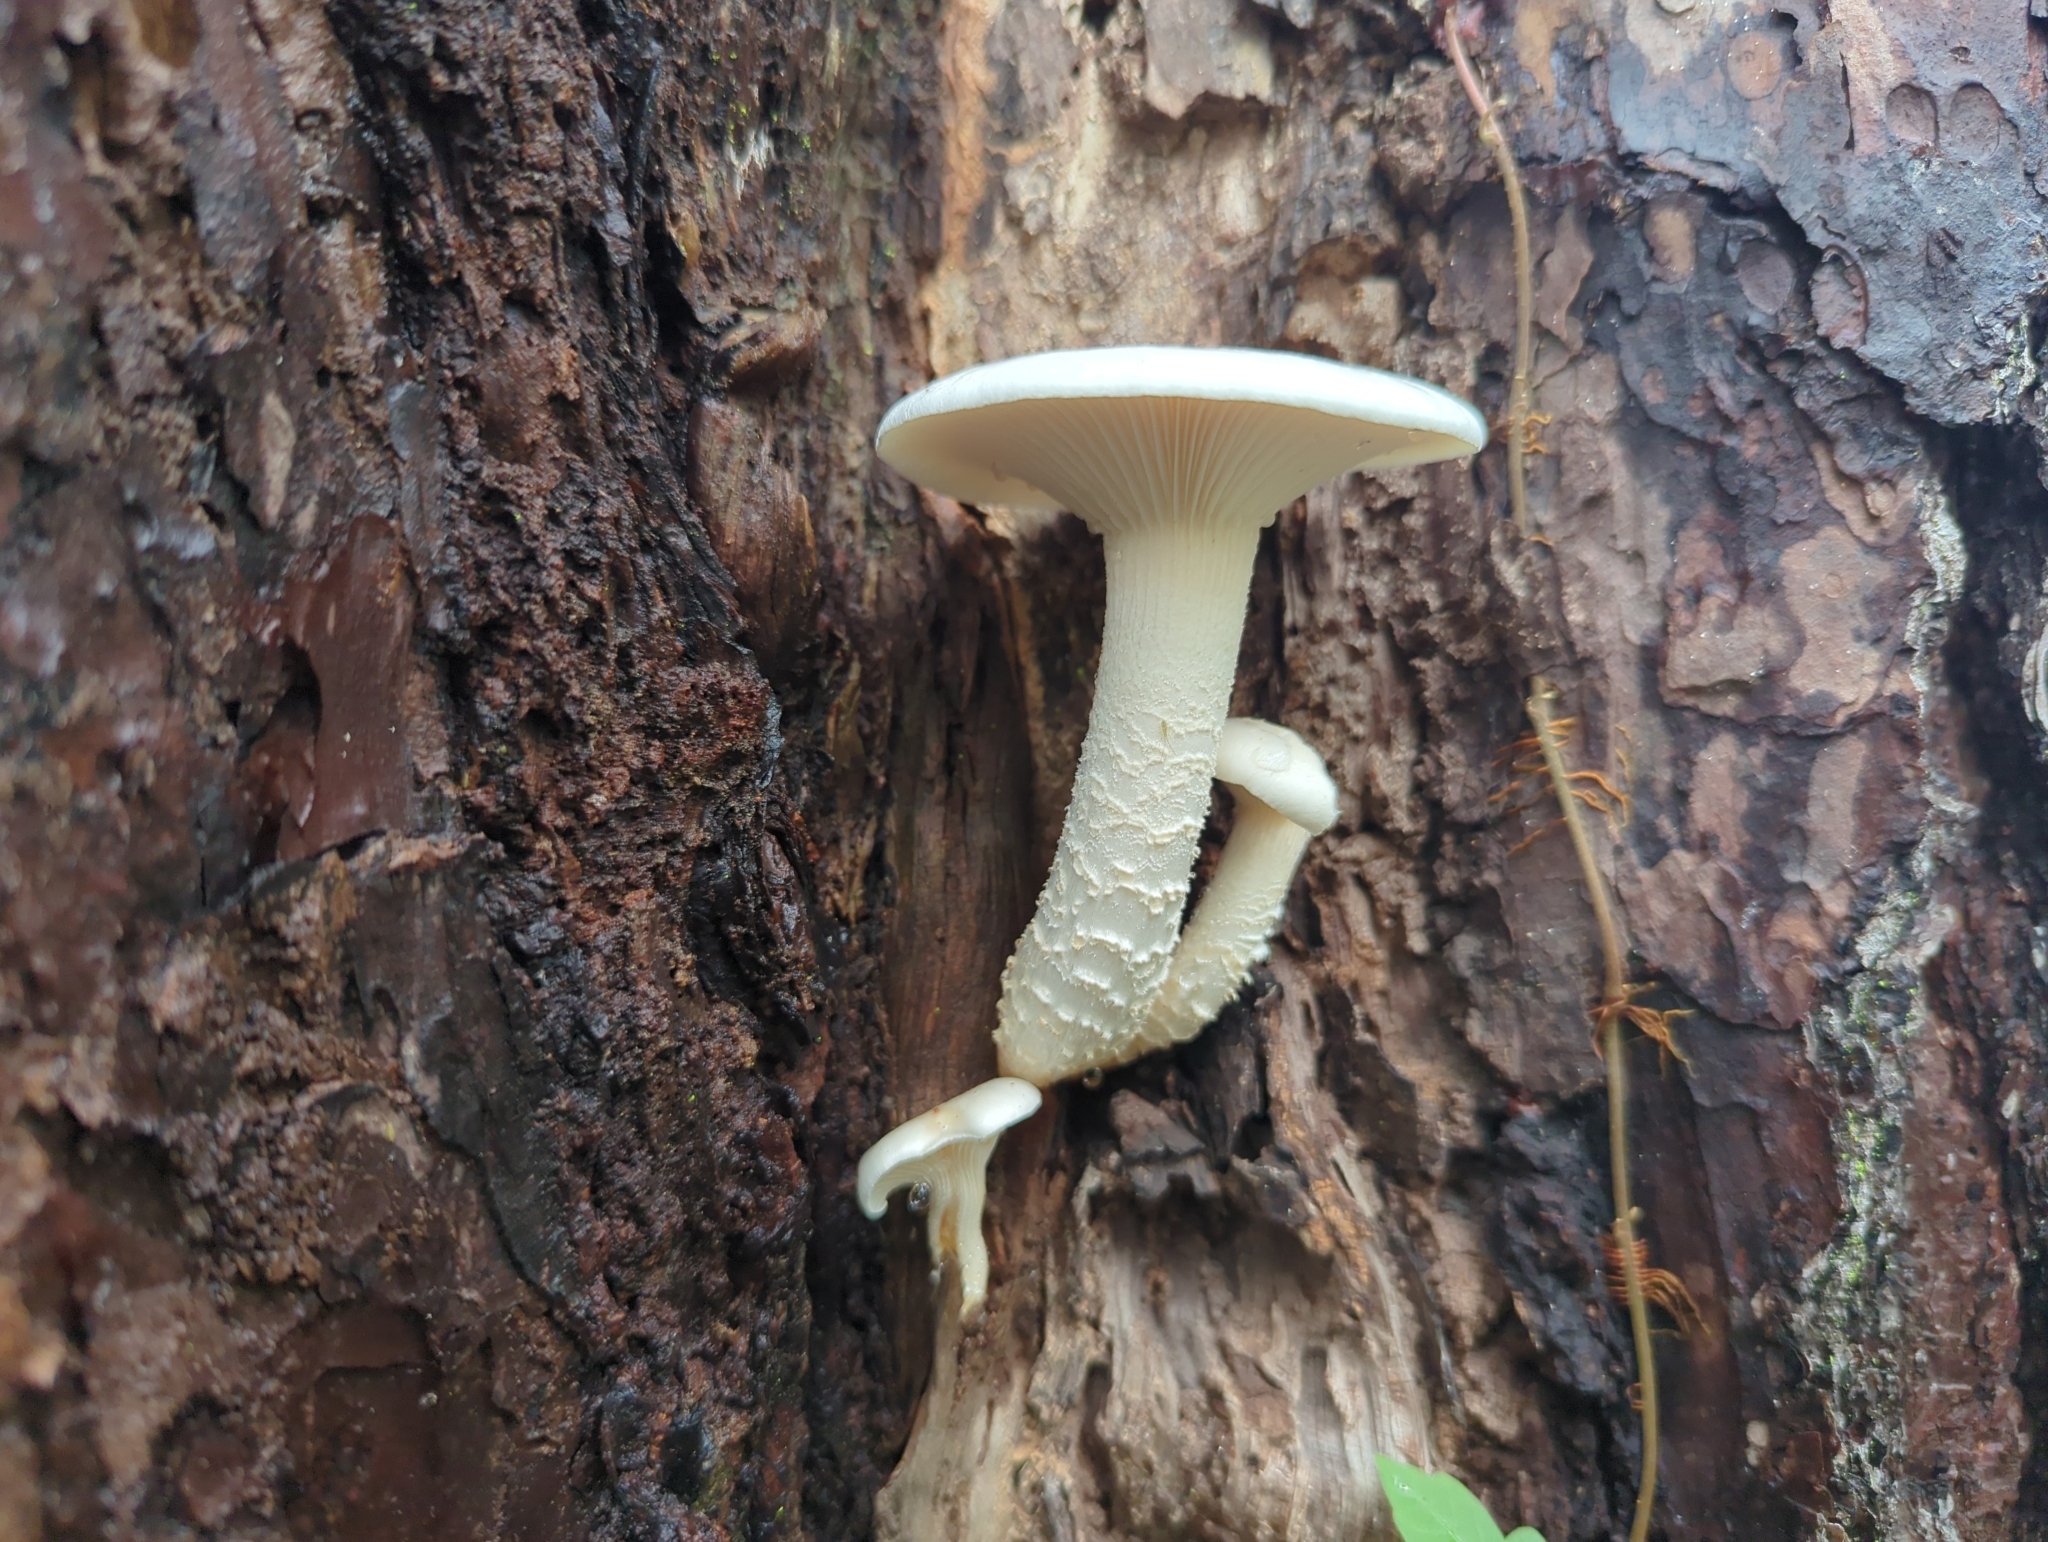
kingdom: Fungi
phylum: Basidiomycota
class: Agaricomycetes
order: Gloeophyllales
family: Gloeophyllaceae
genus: Neolentinus
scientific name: Neolentinus lepideus
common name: Scaly sawgill
